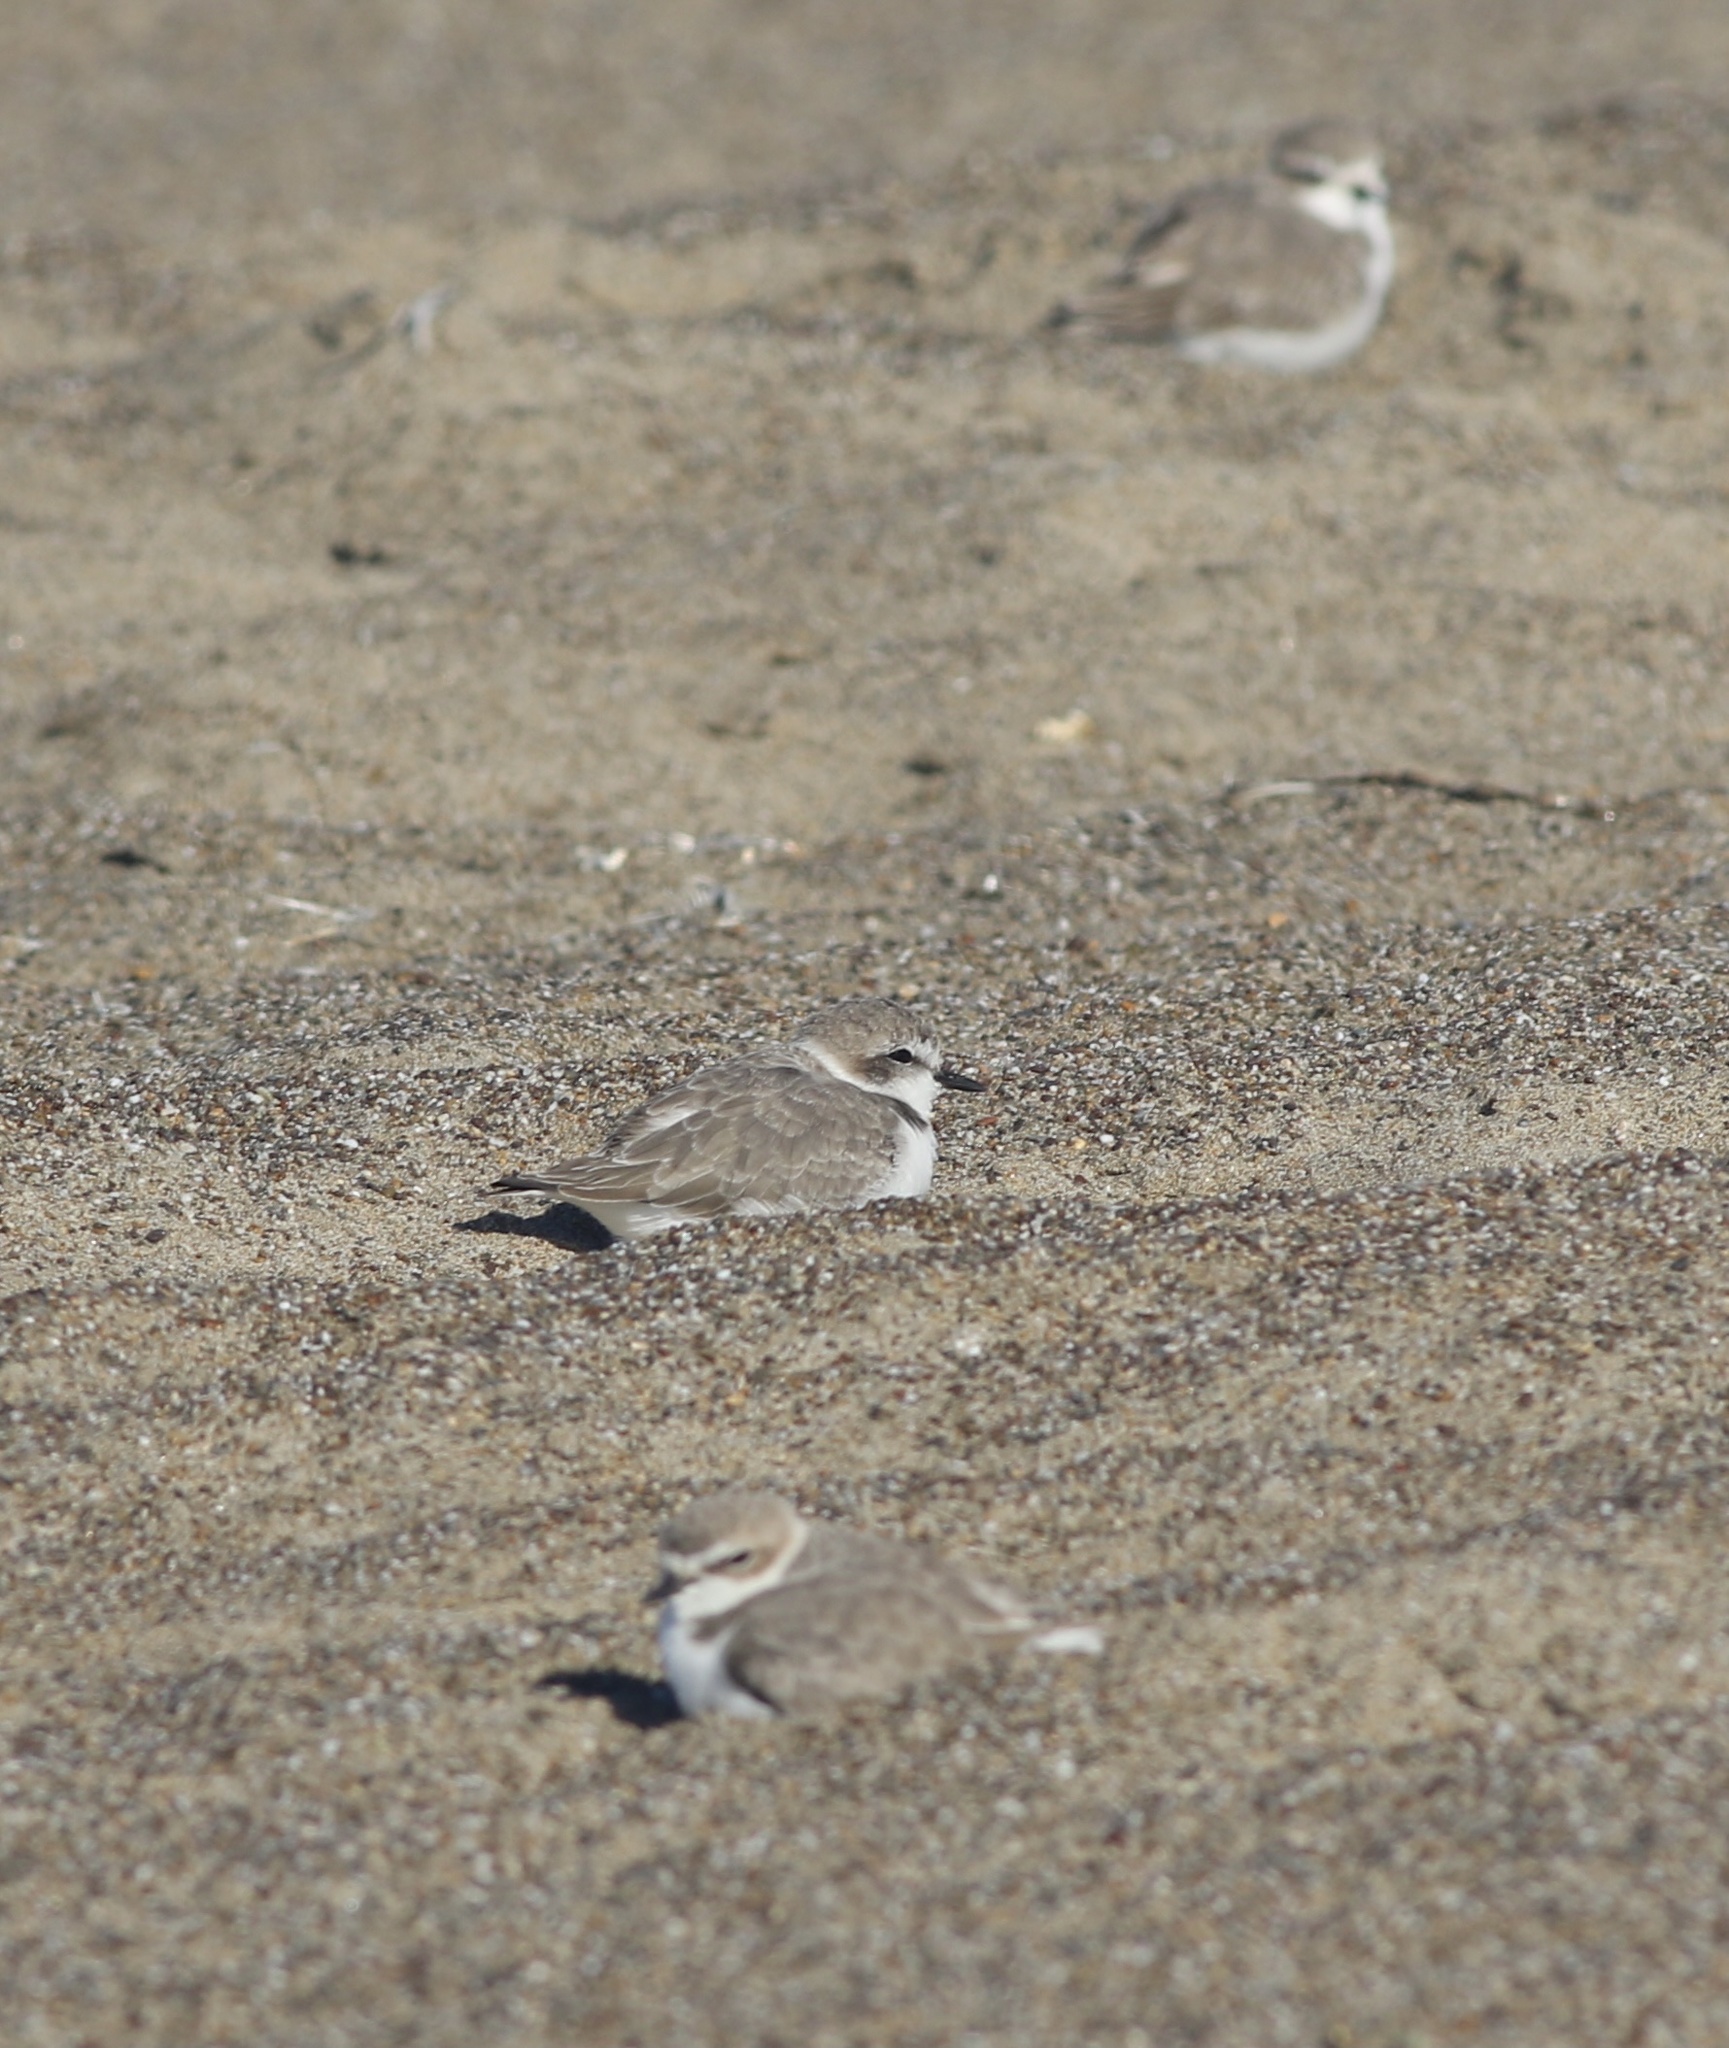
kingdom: Animalia
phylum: Chordata
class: Aves
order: Charadriiformes
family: Charadriidae
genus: Anarhynchus
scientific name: Anarhynchus
